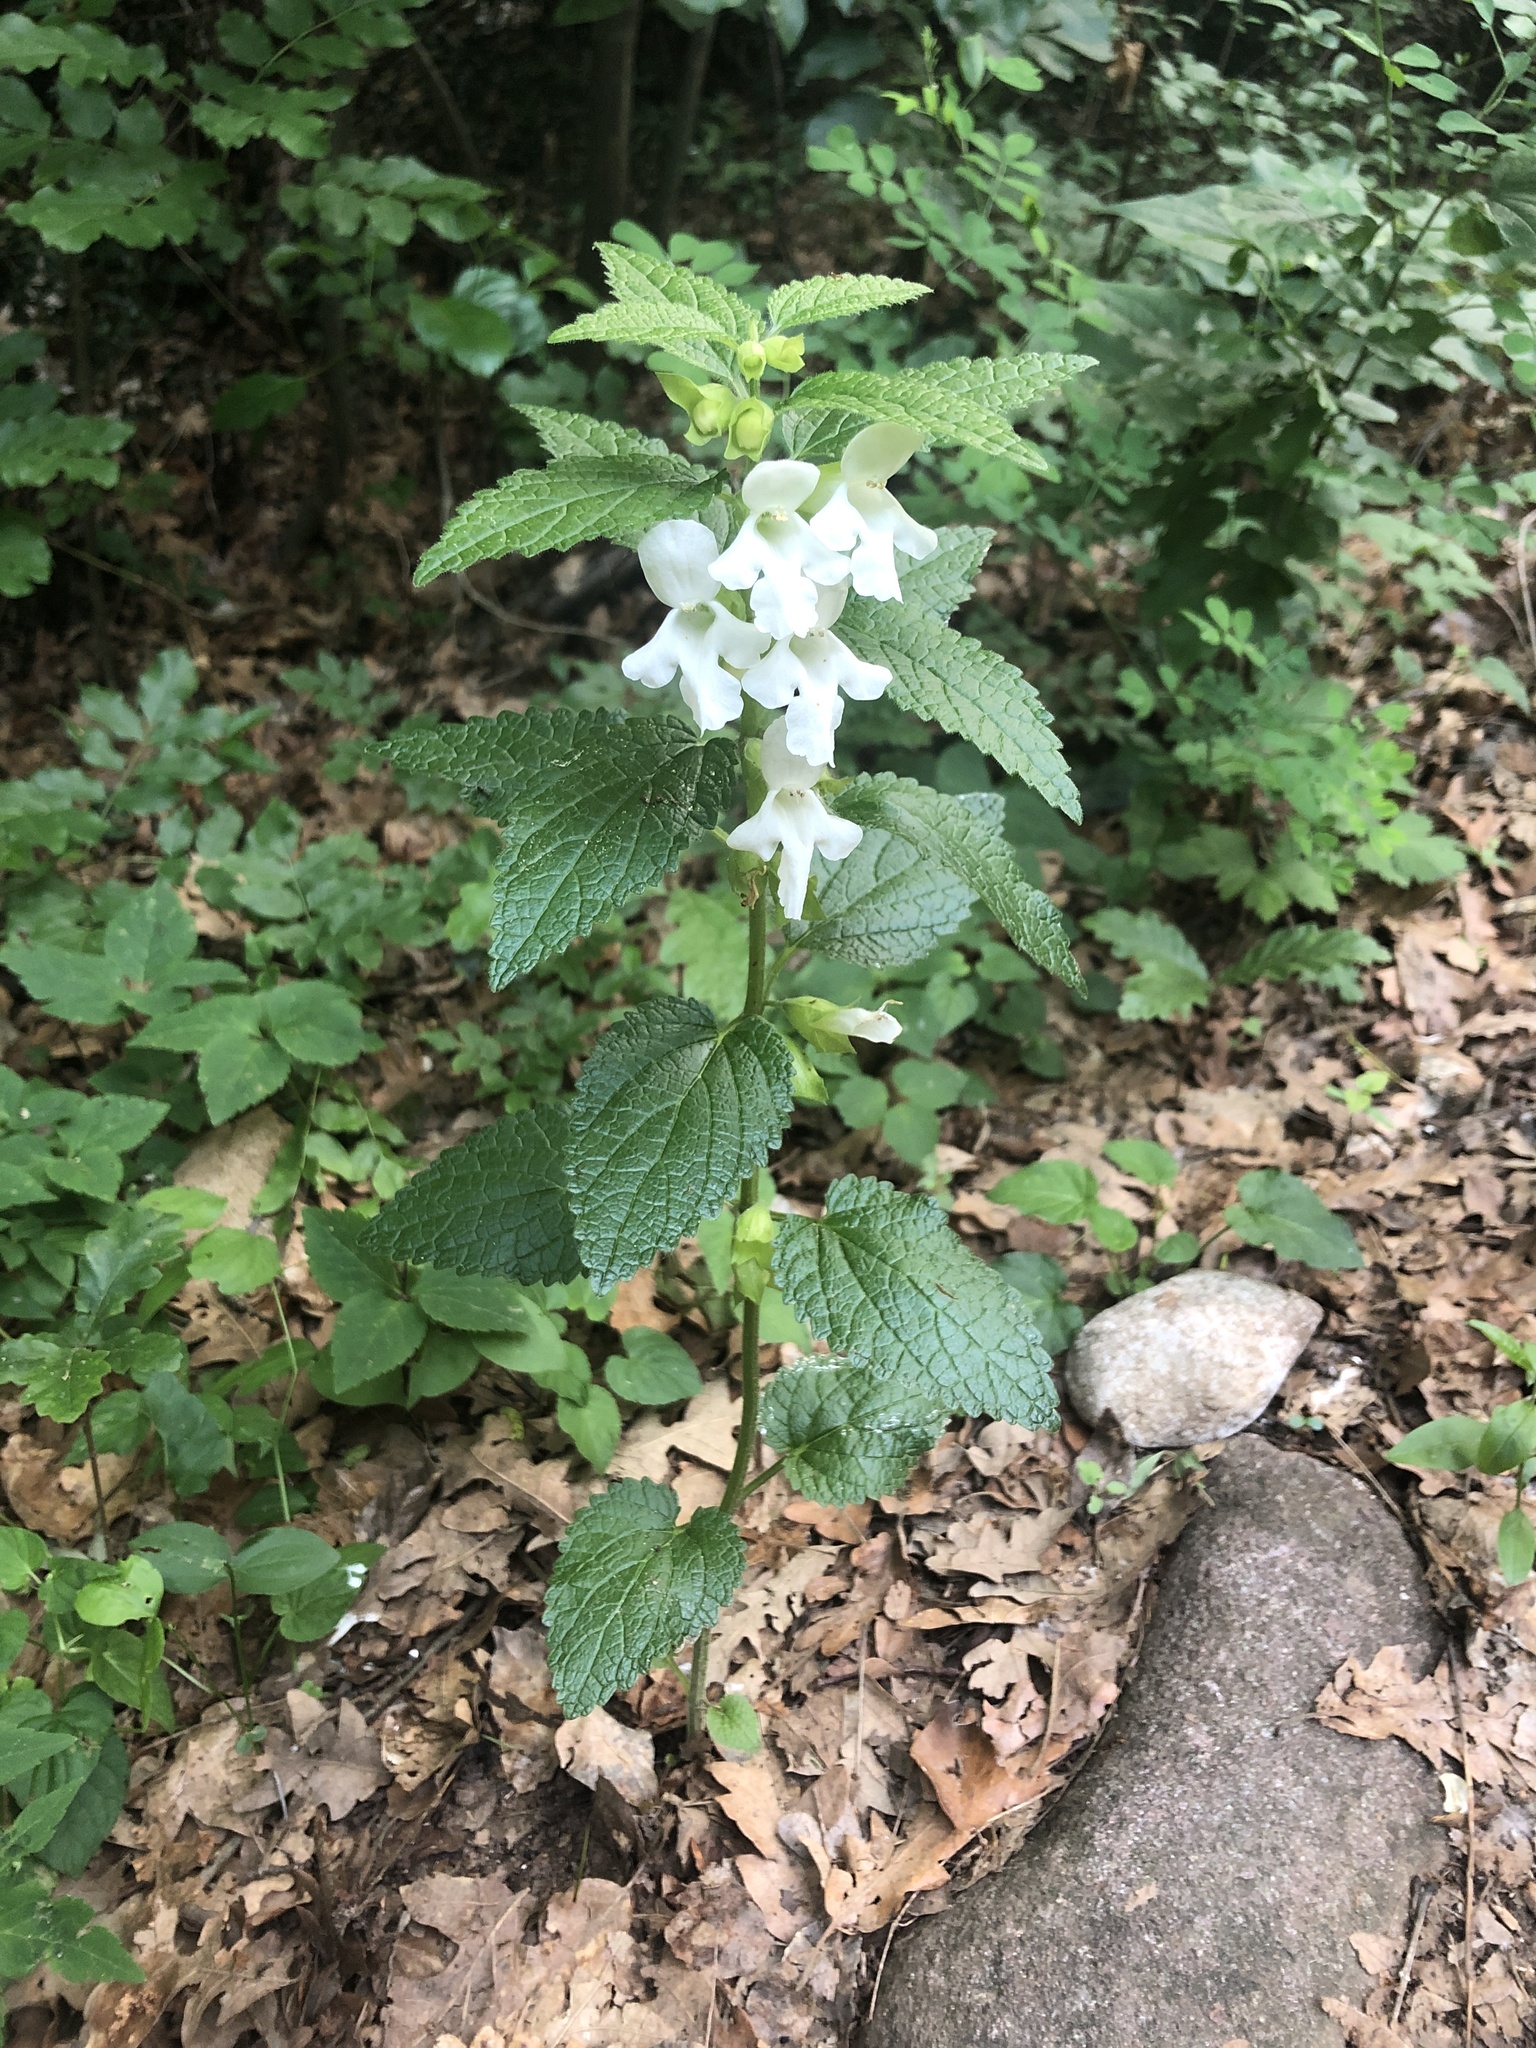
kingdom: Plantae
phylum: Tracheophyta
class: Magnoliopsida
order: Lamiales
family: Lamiaceae
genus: Melittis
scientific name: Melittis melissophyllum
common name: Bastard balm
